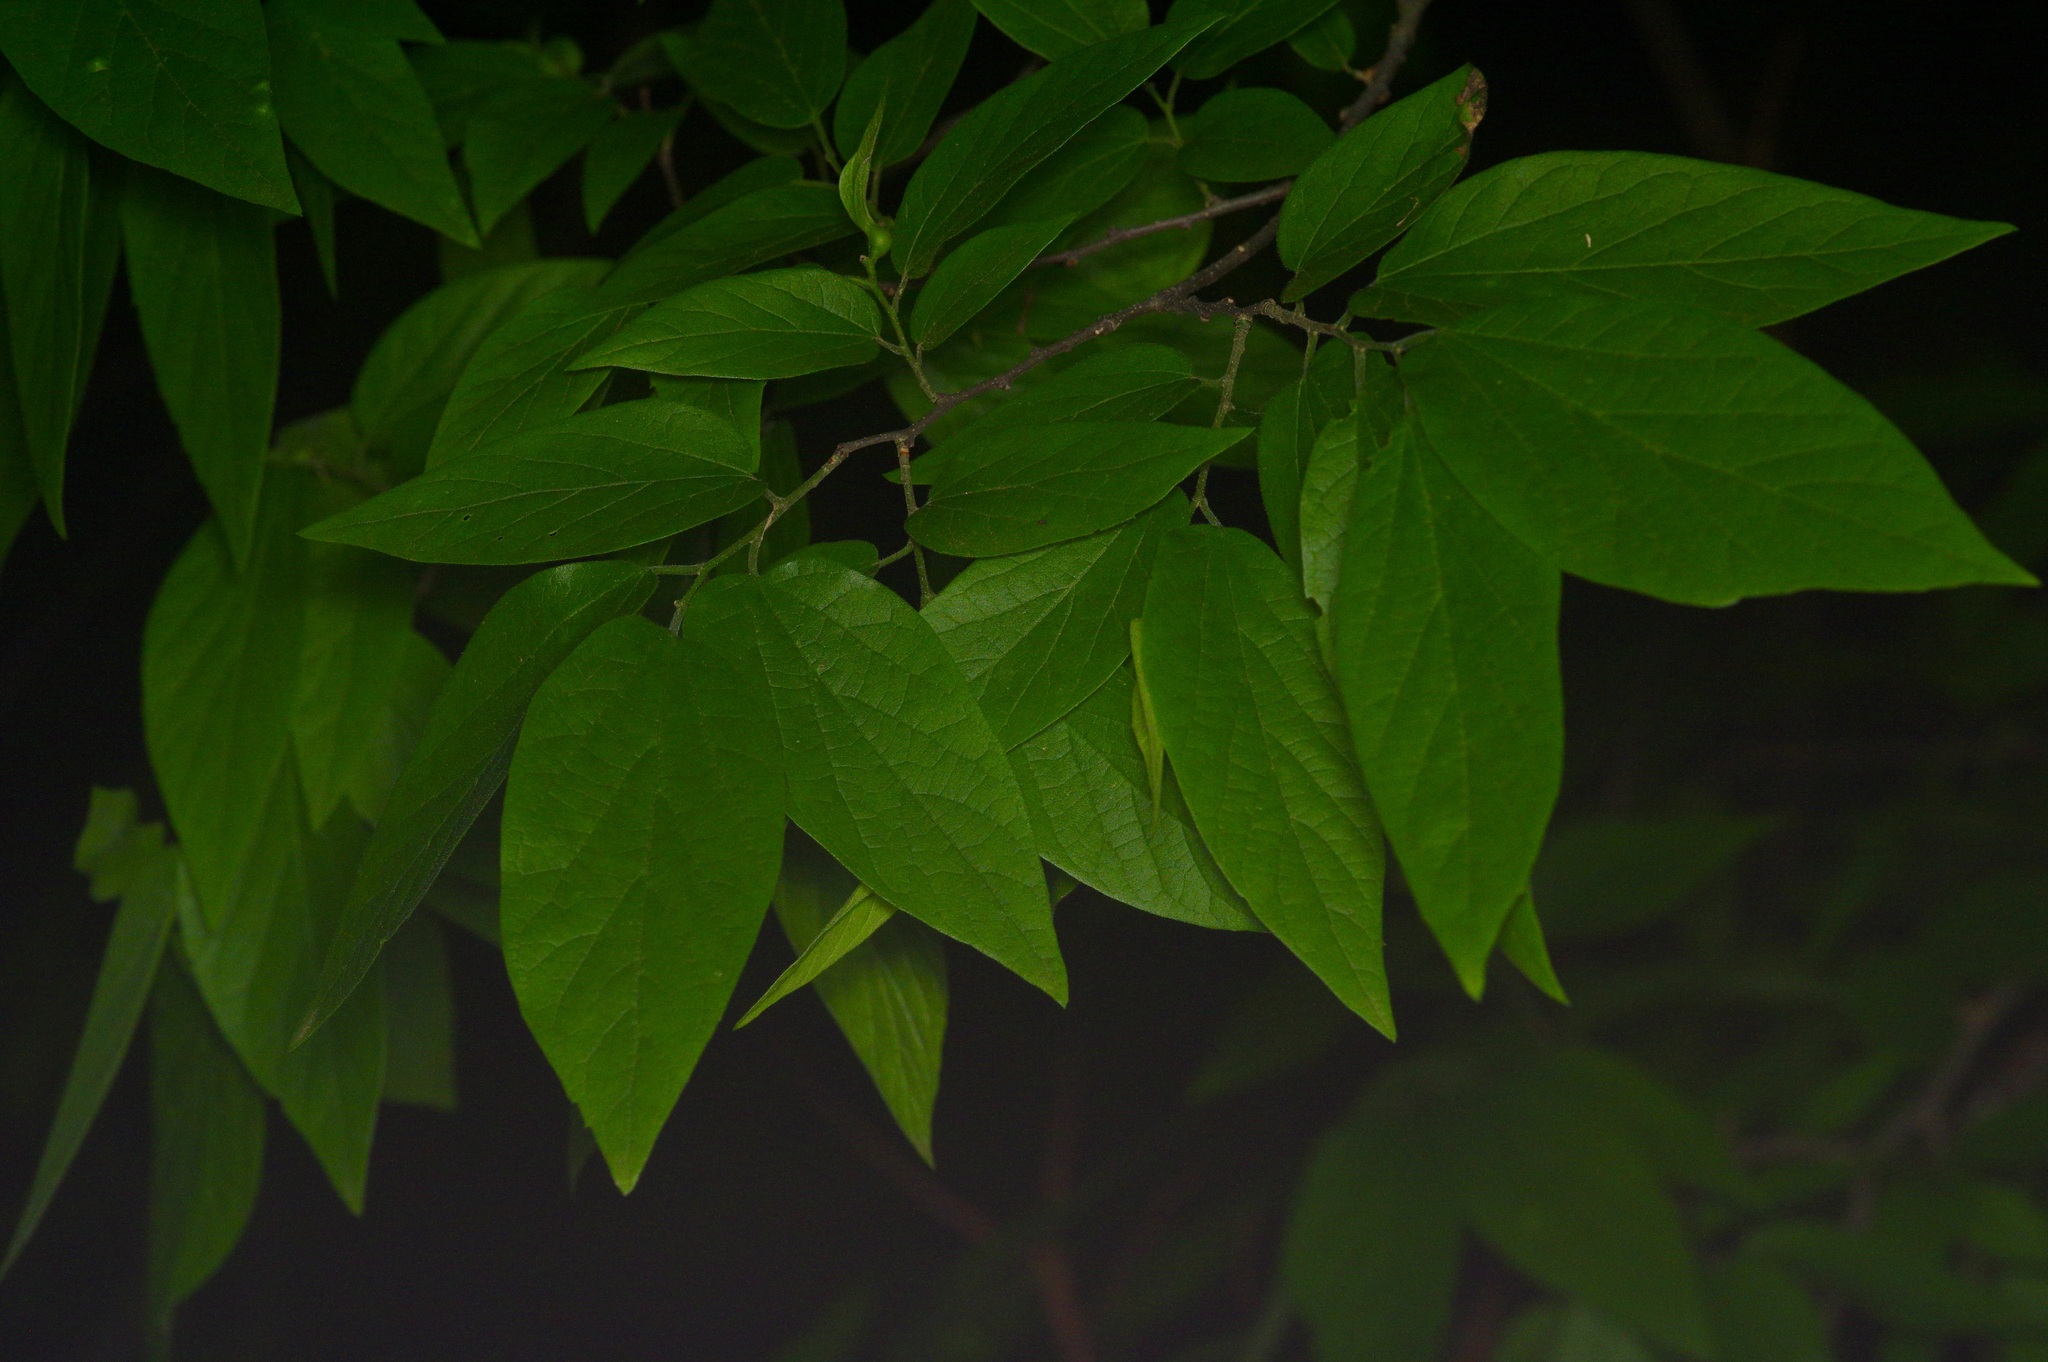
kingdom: Plantae
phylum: Tracheophyta
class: Magnoliopsida
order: Rosales
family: Cannabaceae
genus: Celtis
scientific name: Celtis laevigata
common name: Sugarberry
